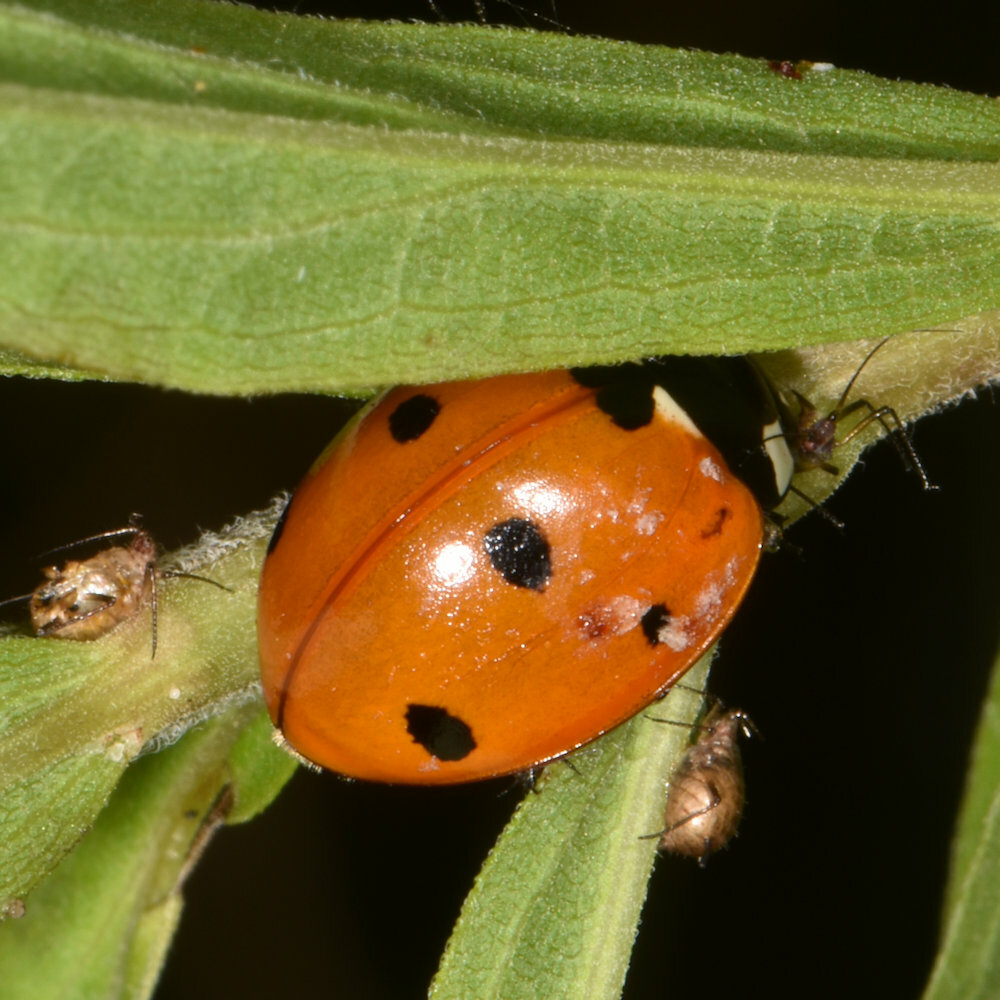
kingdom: Animalia
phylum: Arthropoda
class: Insecta
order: Coleoptera
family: Coccinellidae
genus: Coccinella
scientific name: Coccinella septempunctata
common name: Sevenspotted lady beetle
